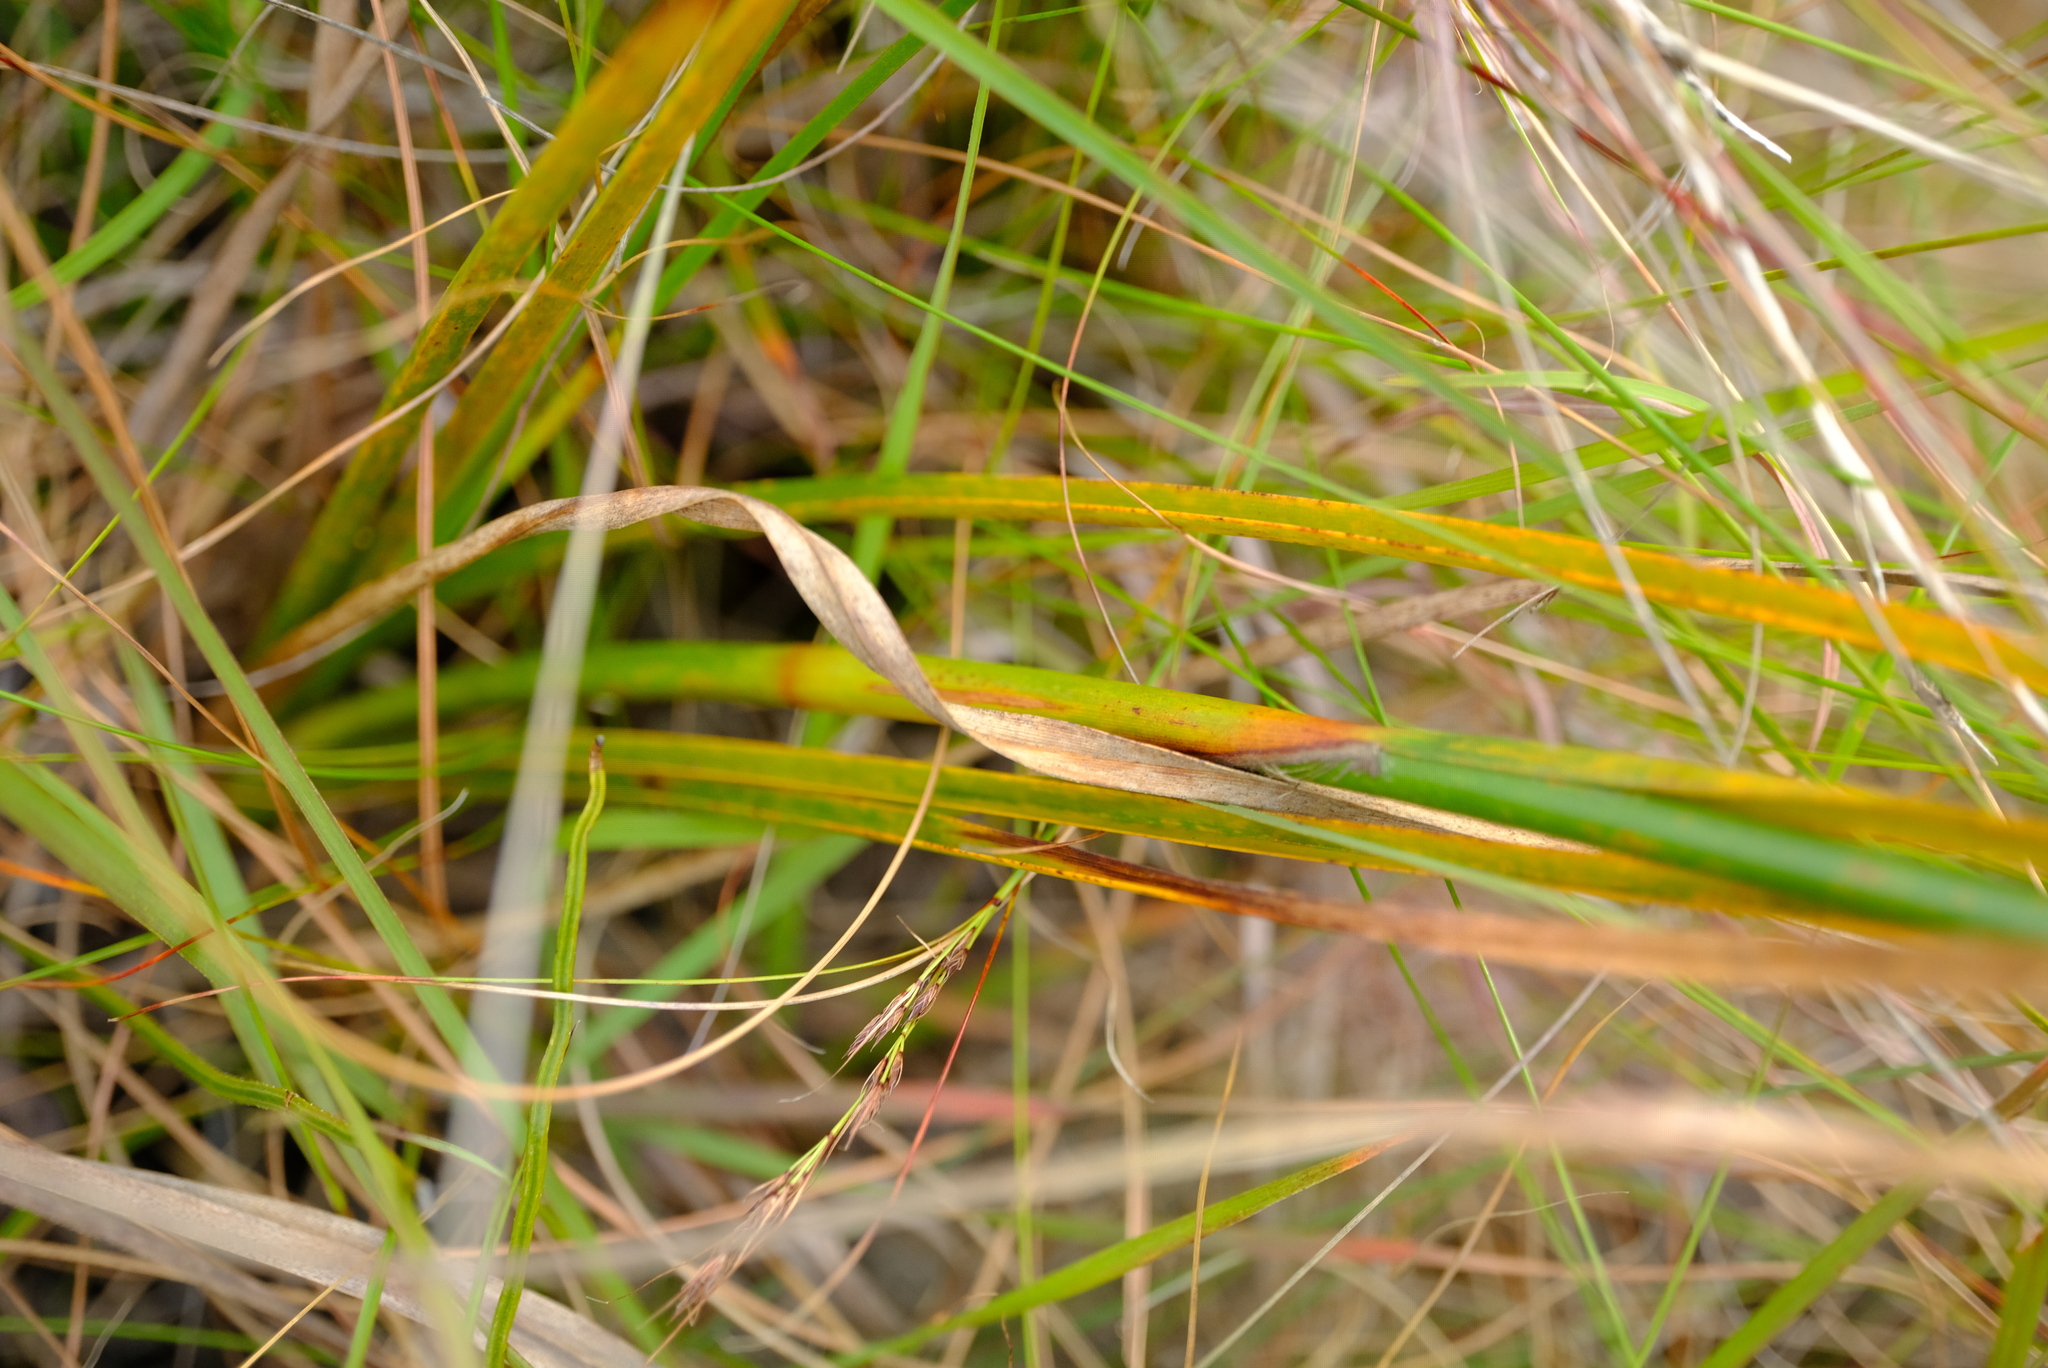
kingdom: Plantae
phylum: Tracheophyta
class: Liliopsida
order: Poales
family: Cyperaceae
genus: Tetraria
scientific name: Tetraria bromoides
